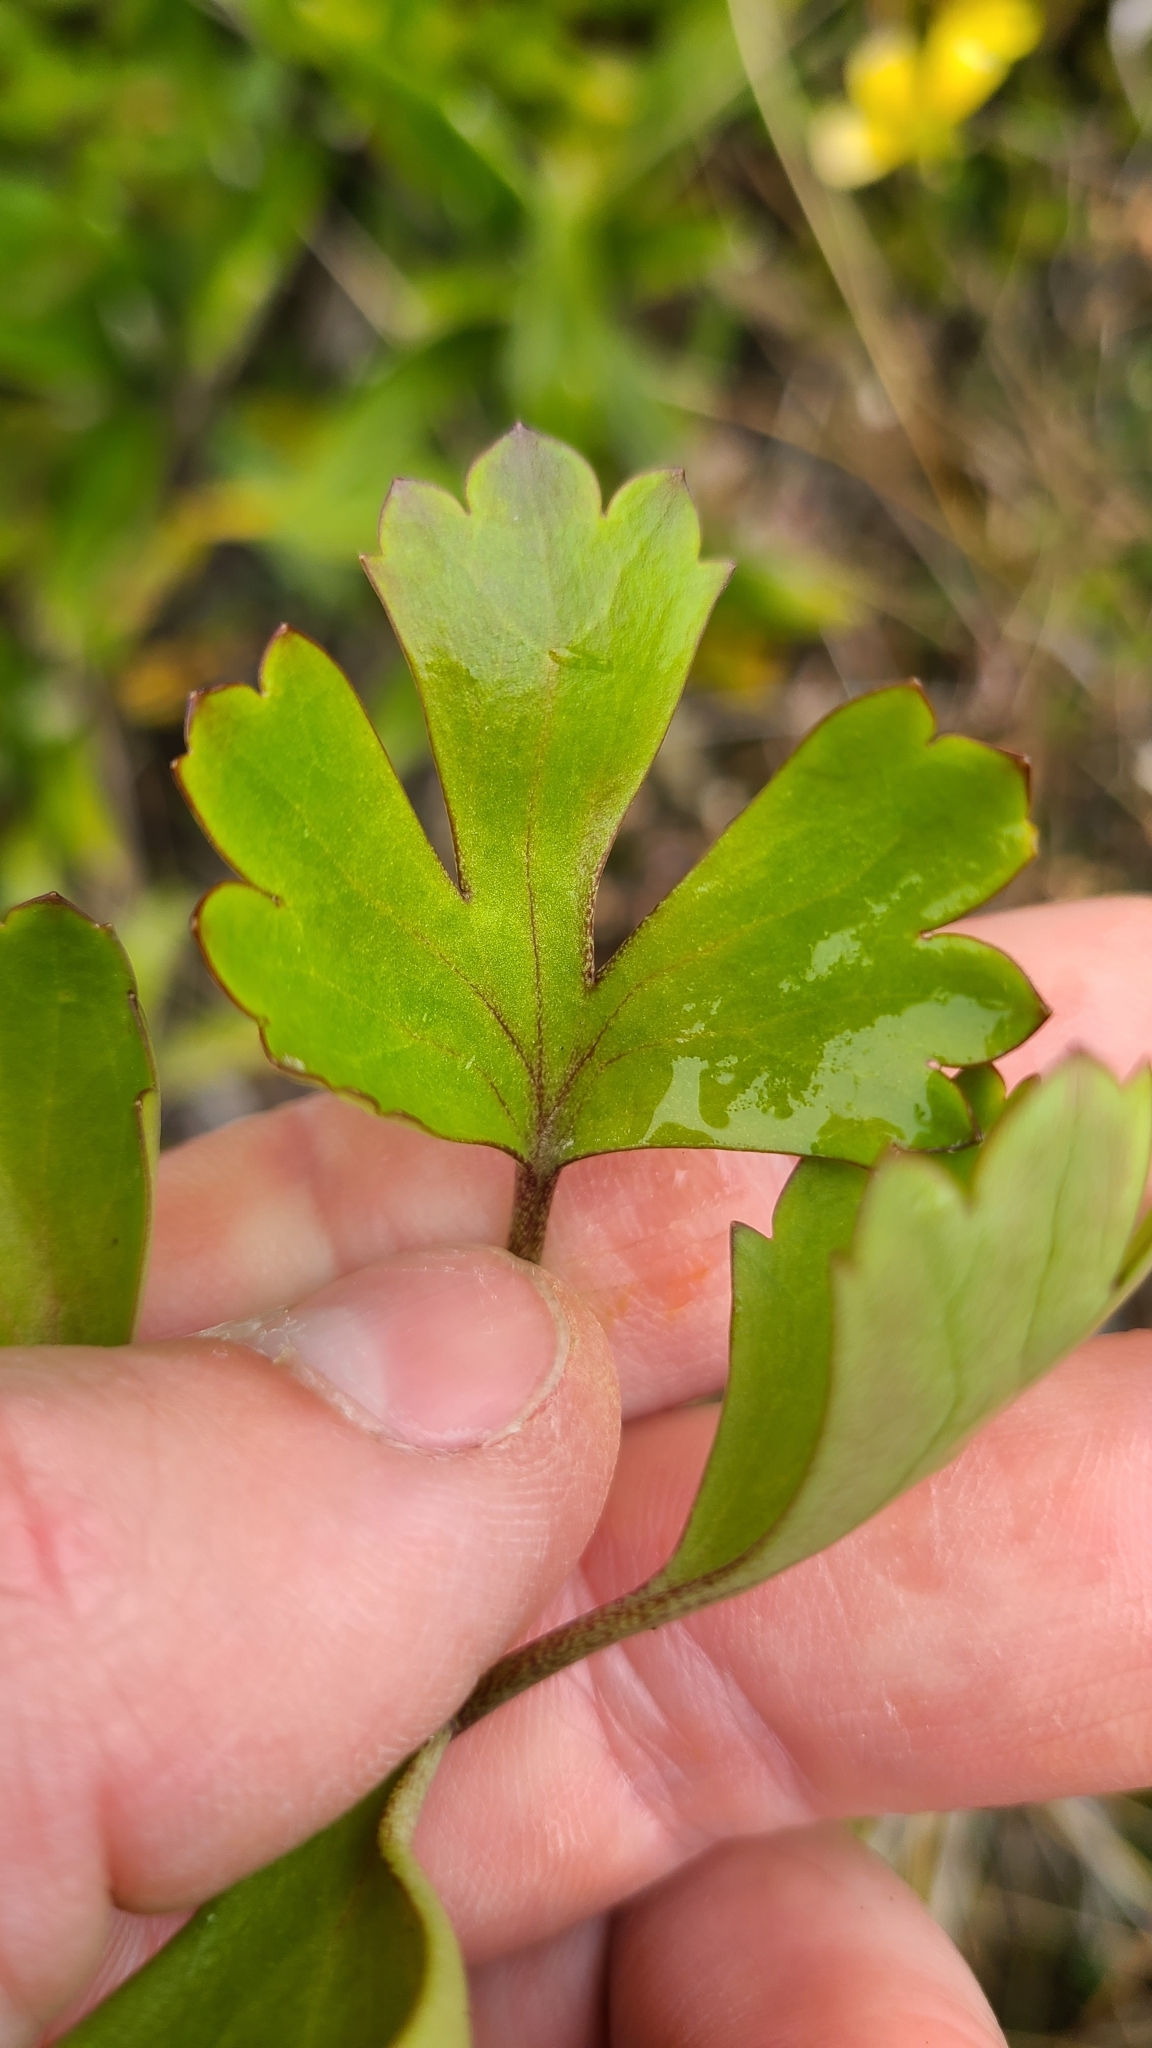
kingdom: Plantae
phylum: Tracheophyta
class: Magnoliopsida
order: Ranunculales
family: Ranunculaceae
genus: Ranunculus
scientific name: Ranunculus enysii
